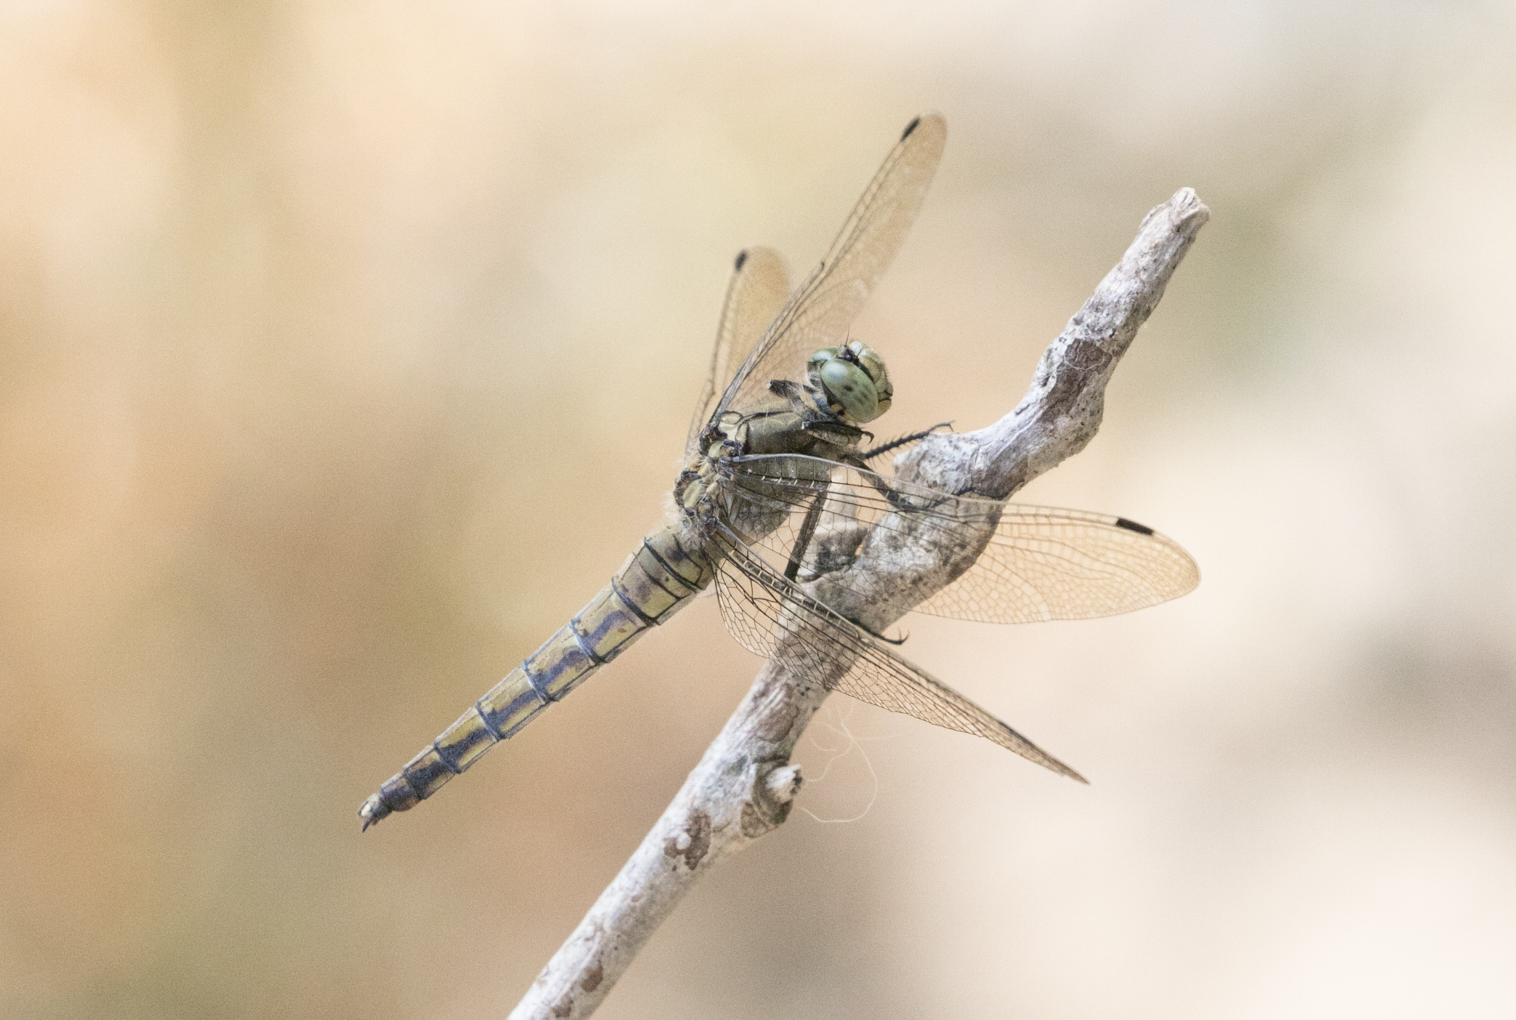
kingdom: Animalia
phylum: Arthropoda
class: Insecta
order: Odonata
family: Libellulidae
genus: Orthetrum
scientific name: Orthetrum cancellatum
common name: Black-tailed skimmer
